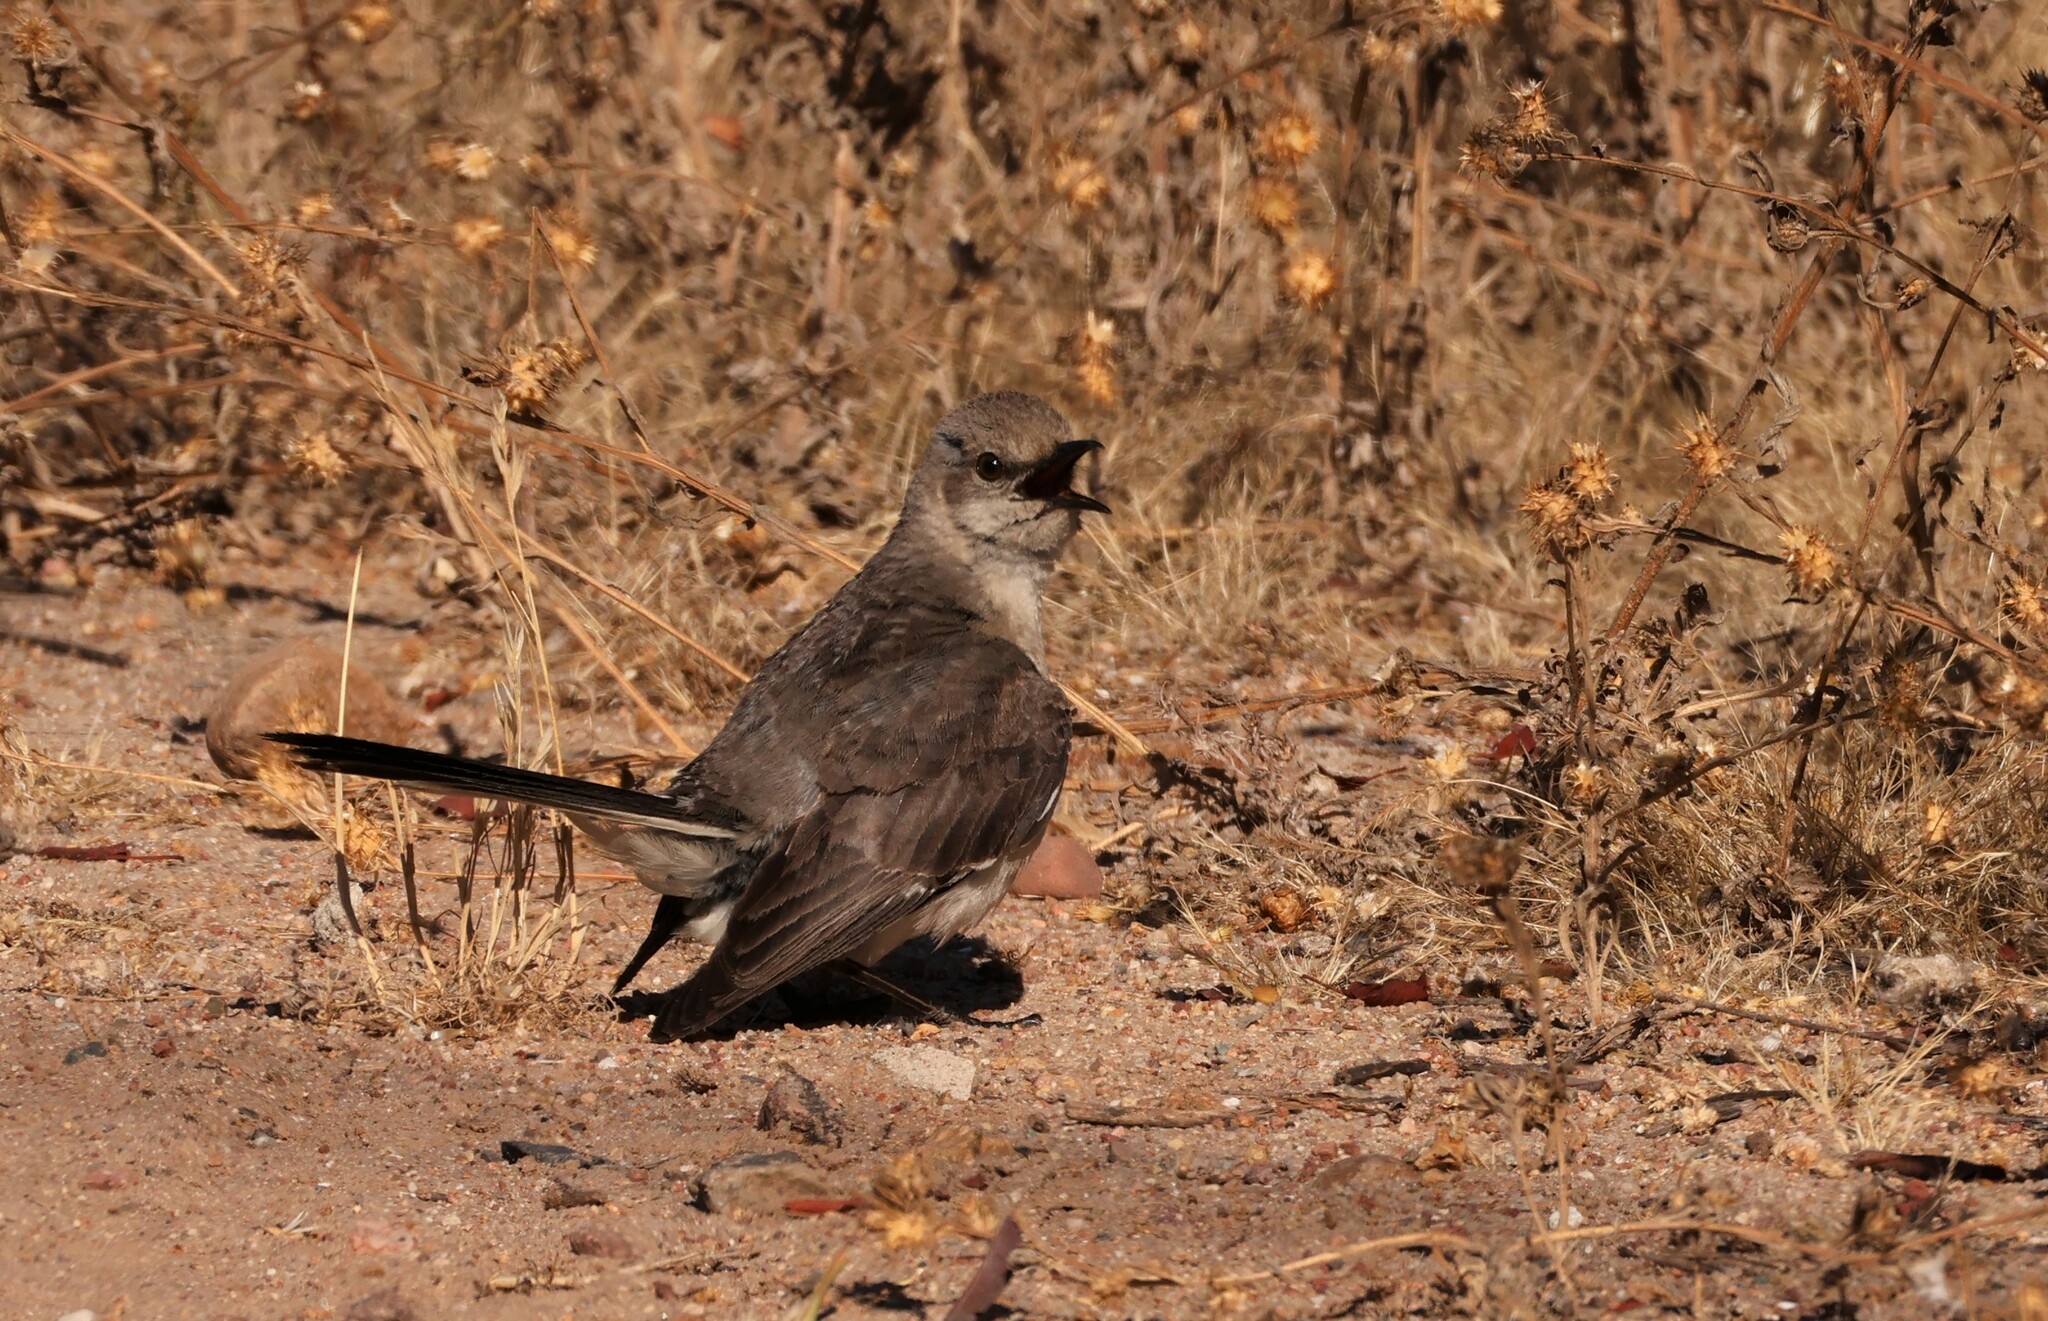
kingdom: Animalia
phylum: Chordata
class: Aves
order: Passeriformes
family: Mimidae
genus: Mimus
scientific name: Mimus polyglottos
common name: Northern mockingbird
